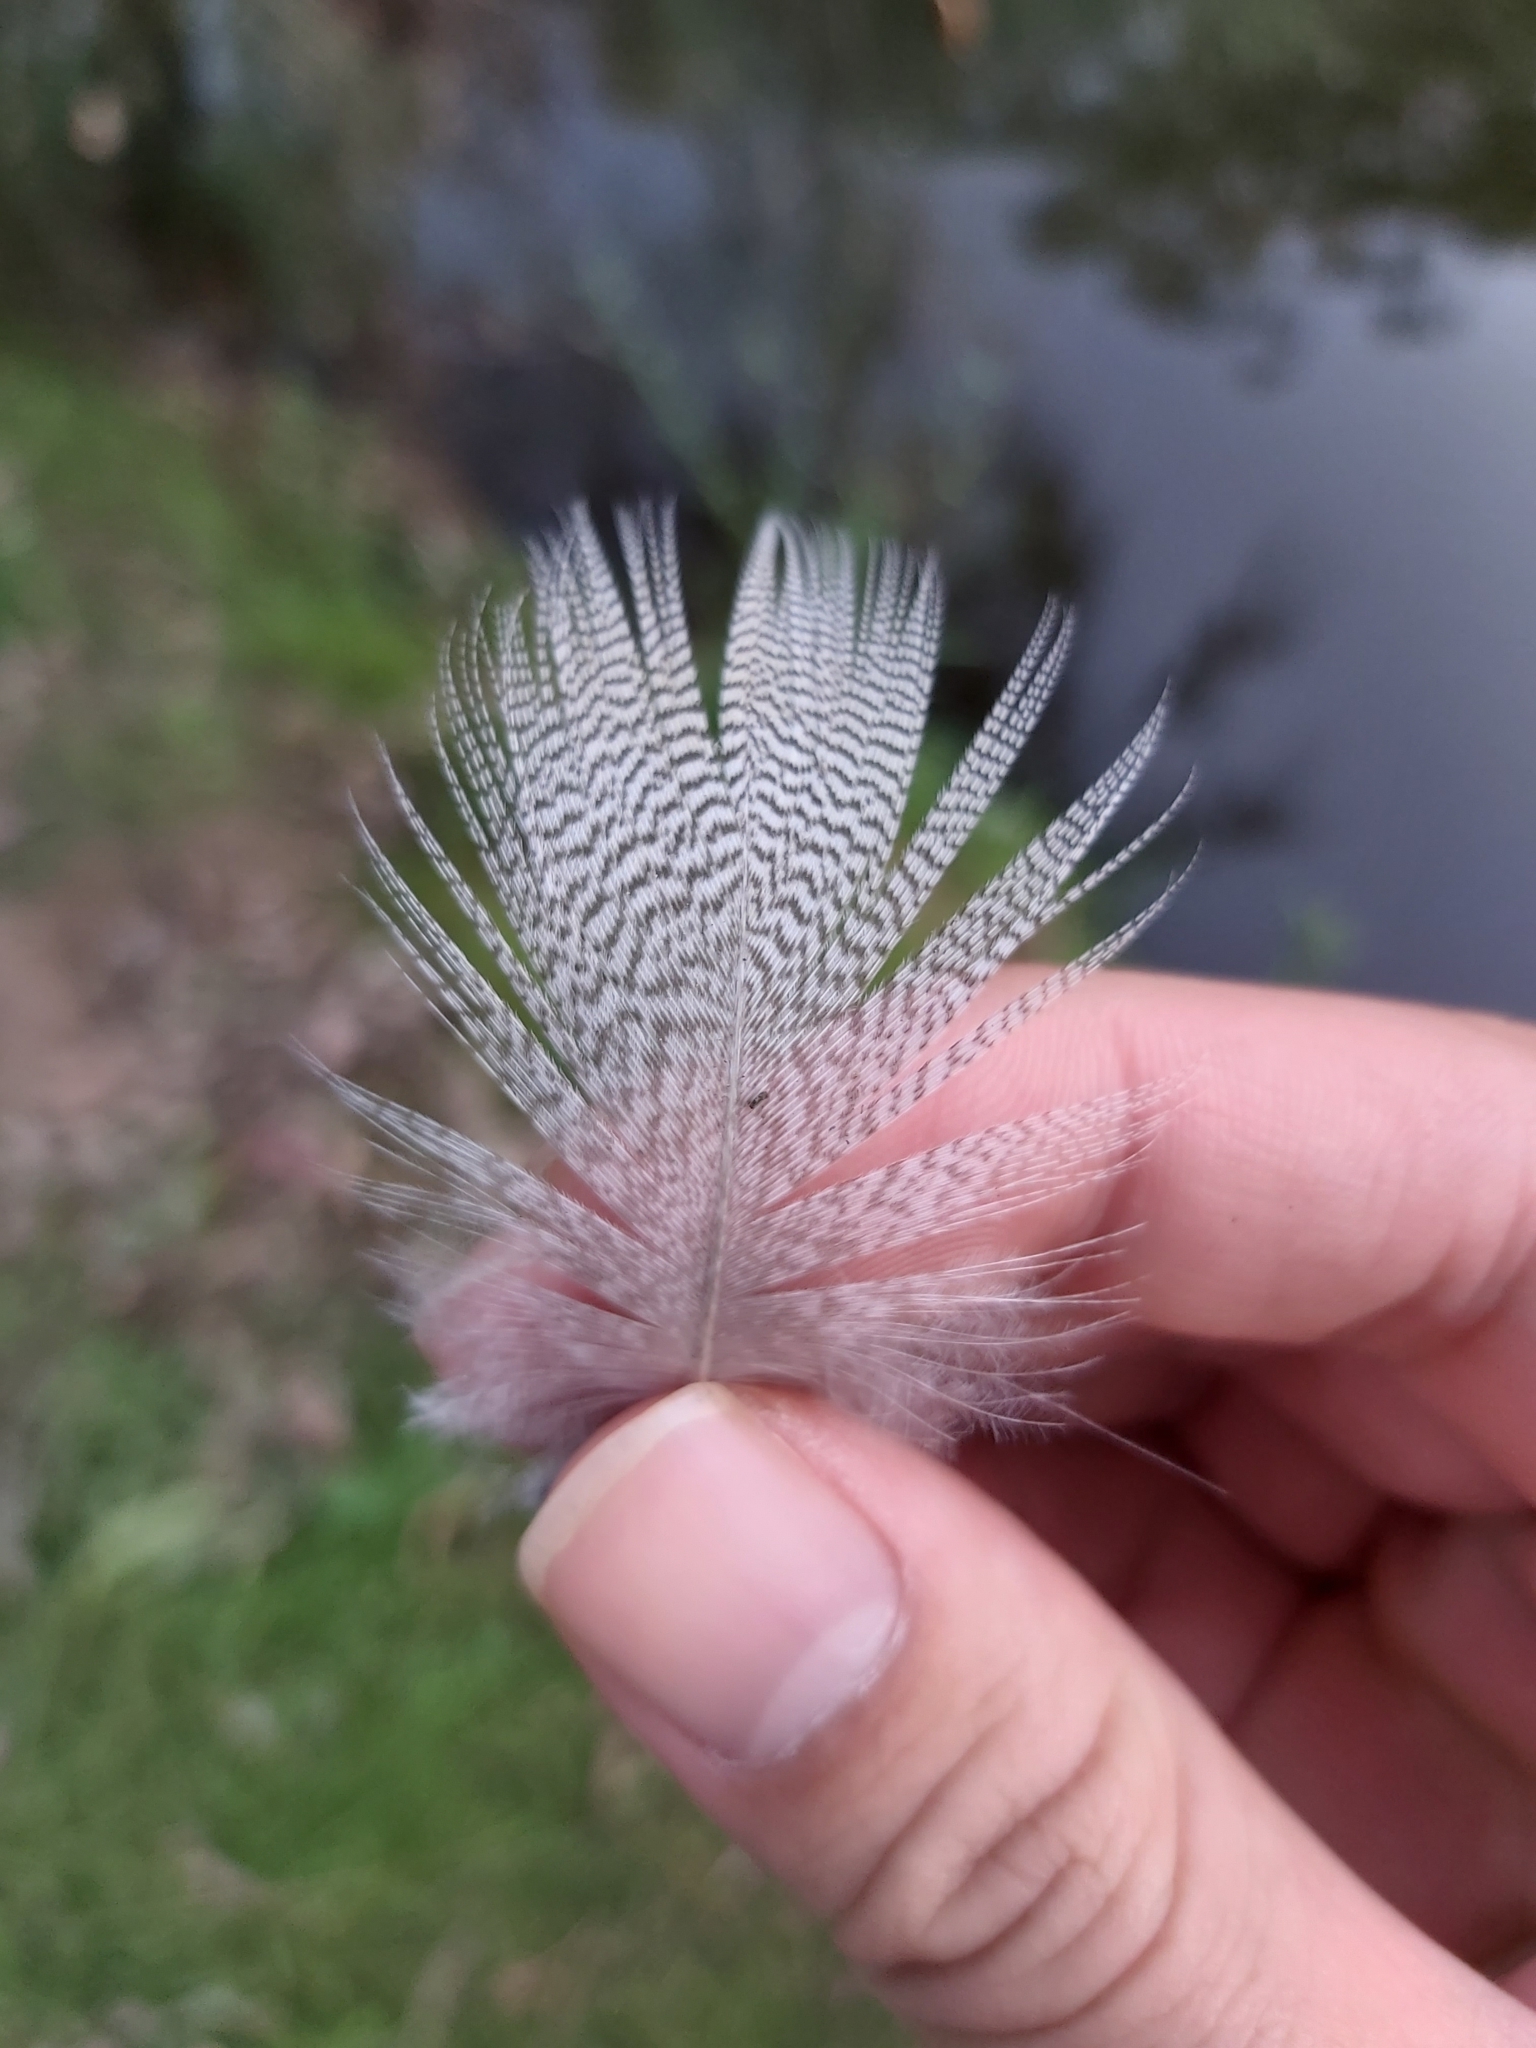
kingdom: Animalia
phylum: Chordata
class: Aves
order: Anseriformes
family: Anatidae
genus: Chenonetta
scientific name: Chenonetta jubata
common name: Maned duck
